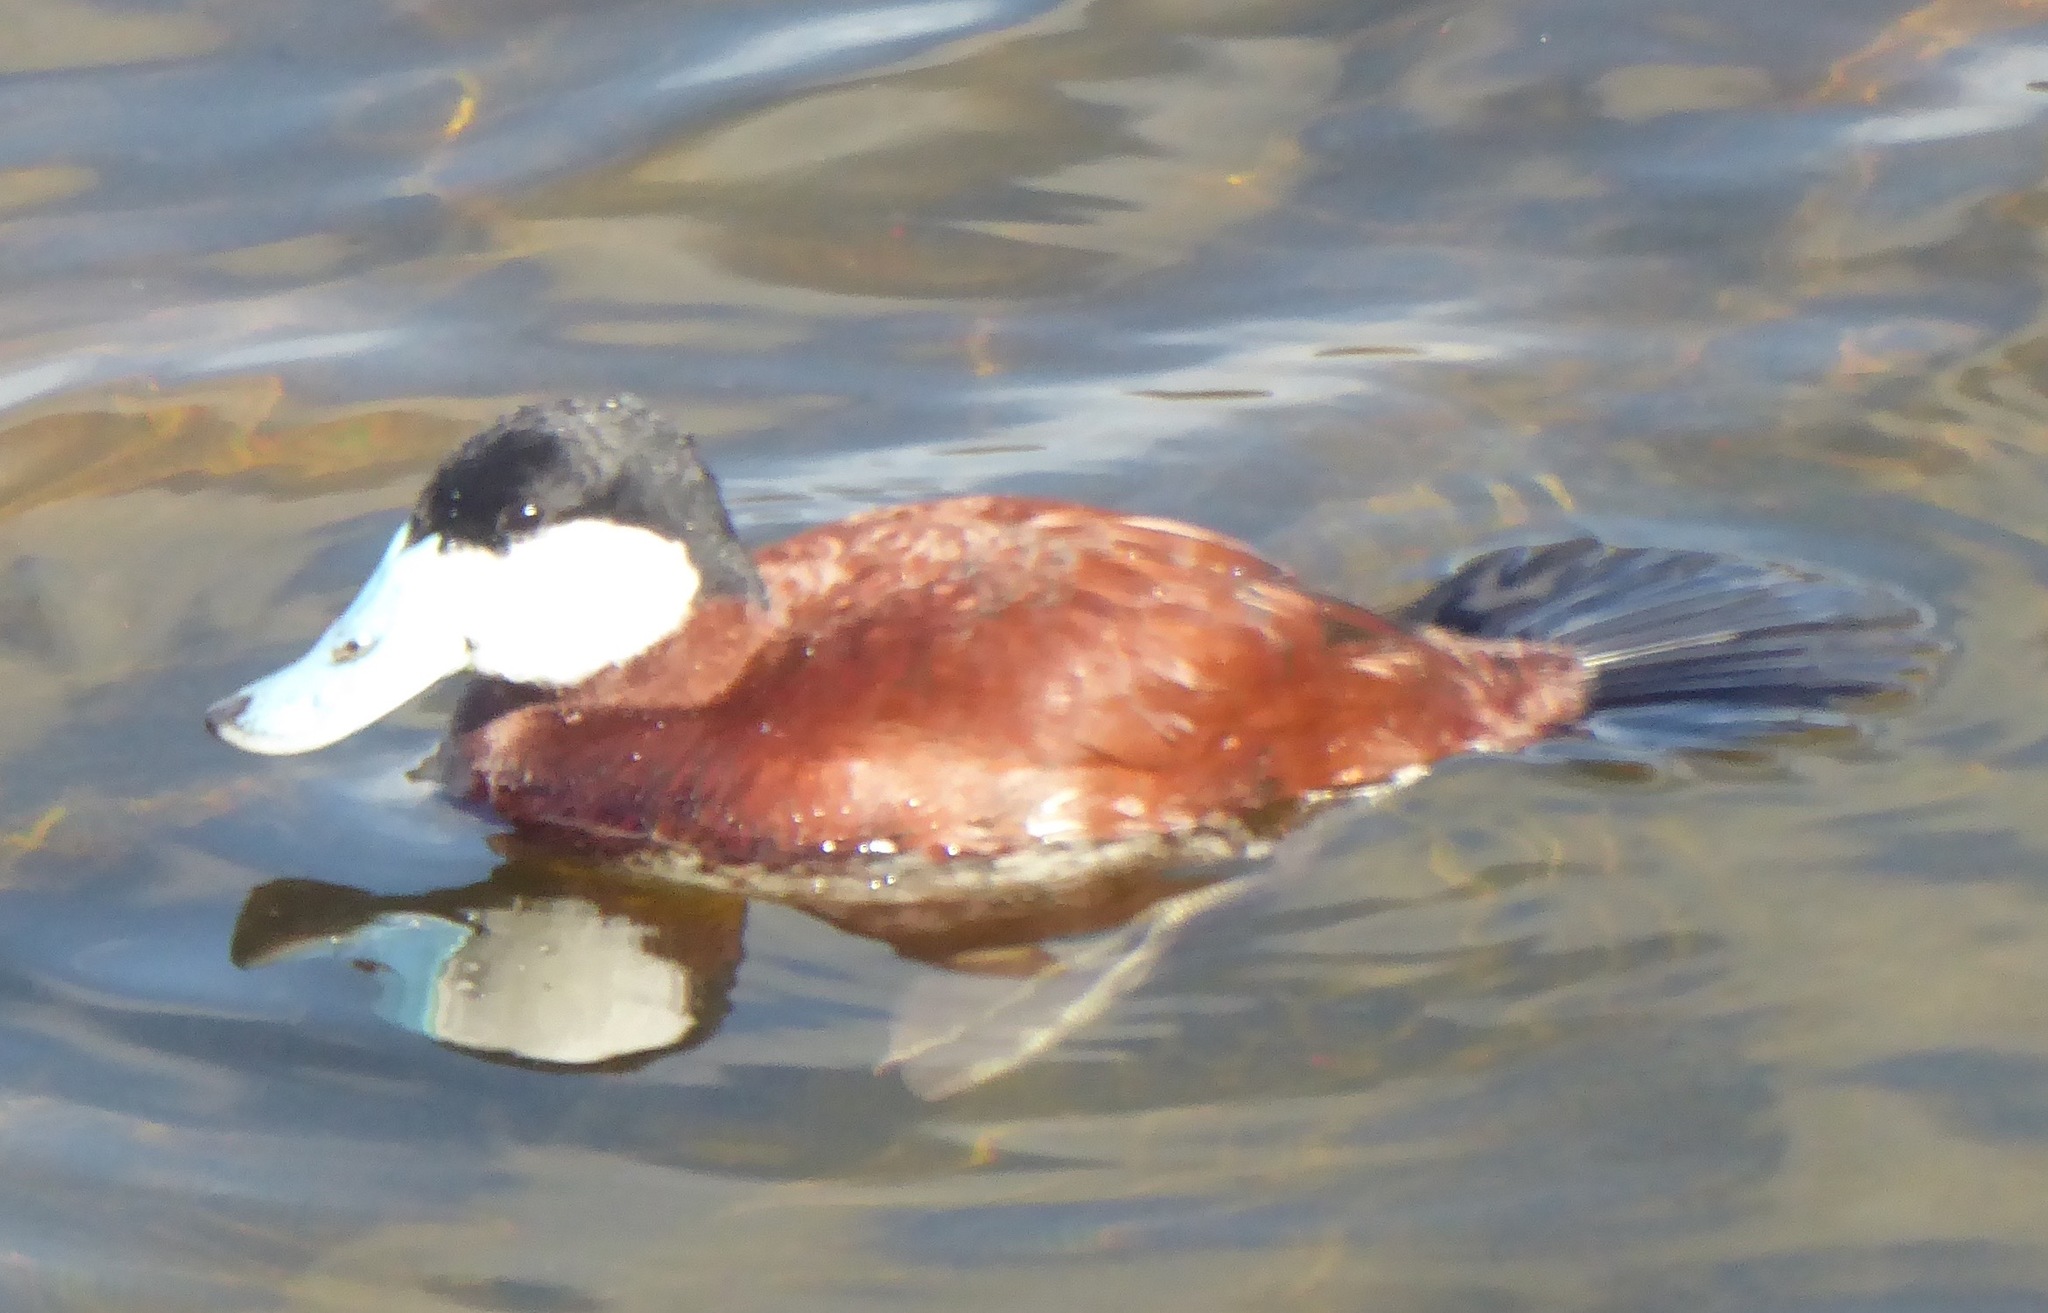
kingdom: Animalia
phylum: Chordata
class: Aves
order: Anseriformes
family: Anatidae
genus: Oxyura
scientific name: Oxyura jamaicensis
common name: Ruddy duck
